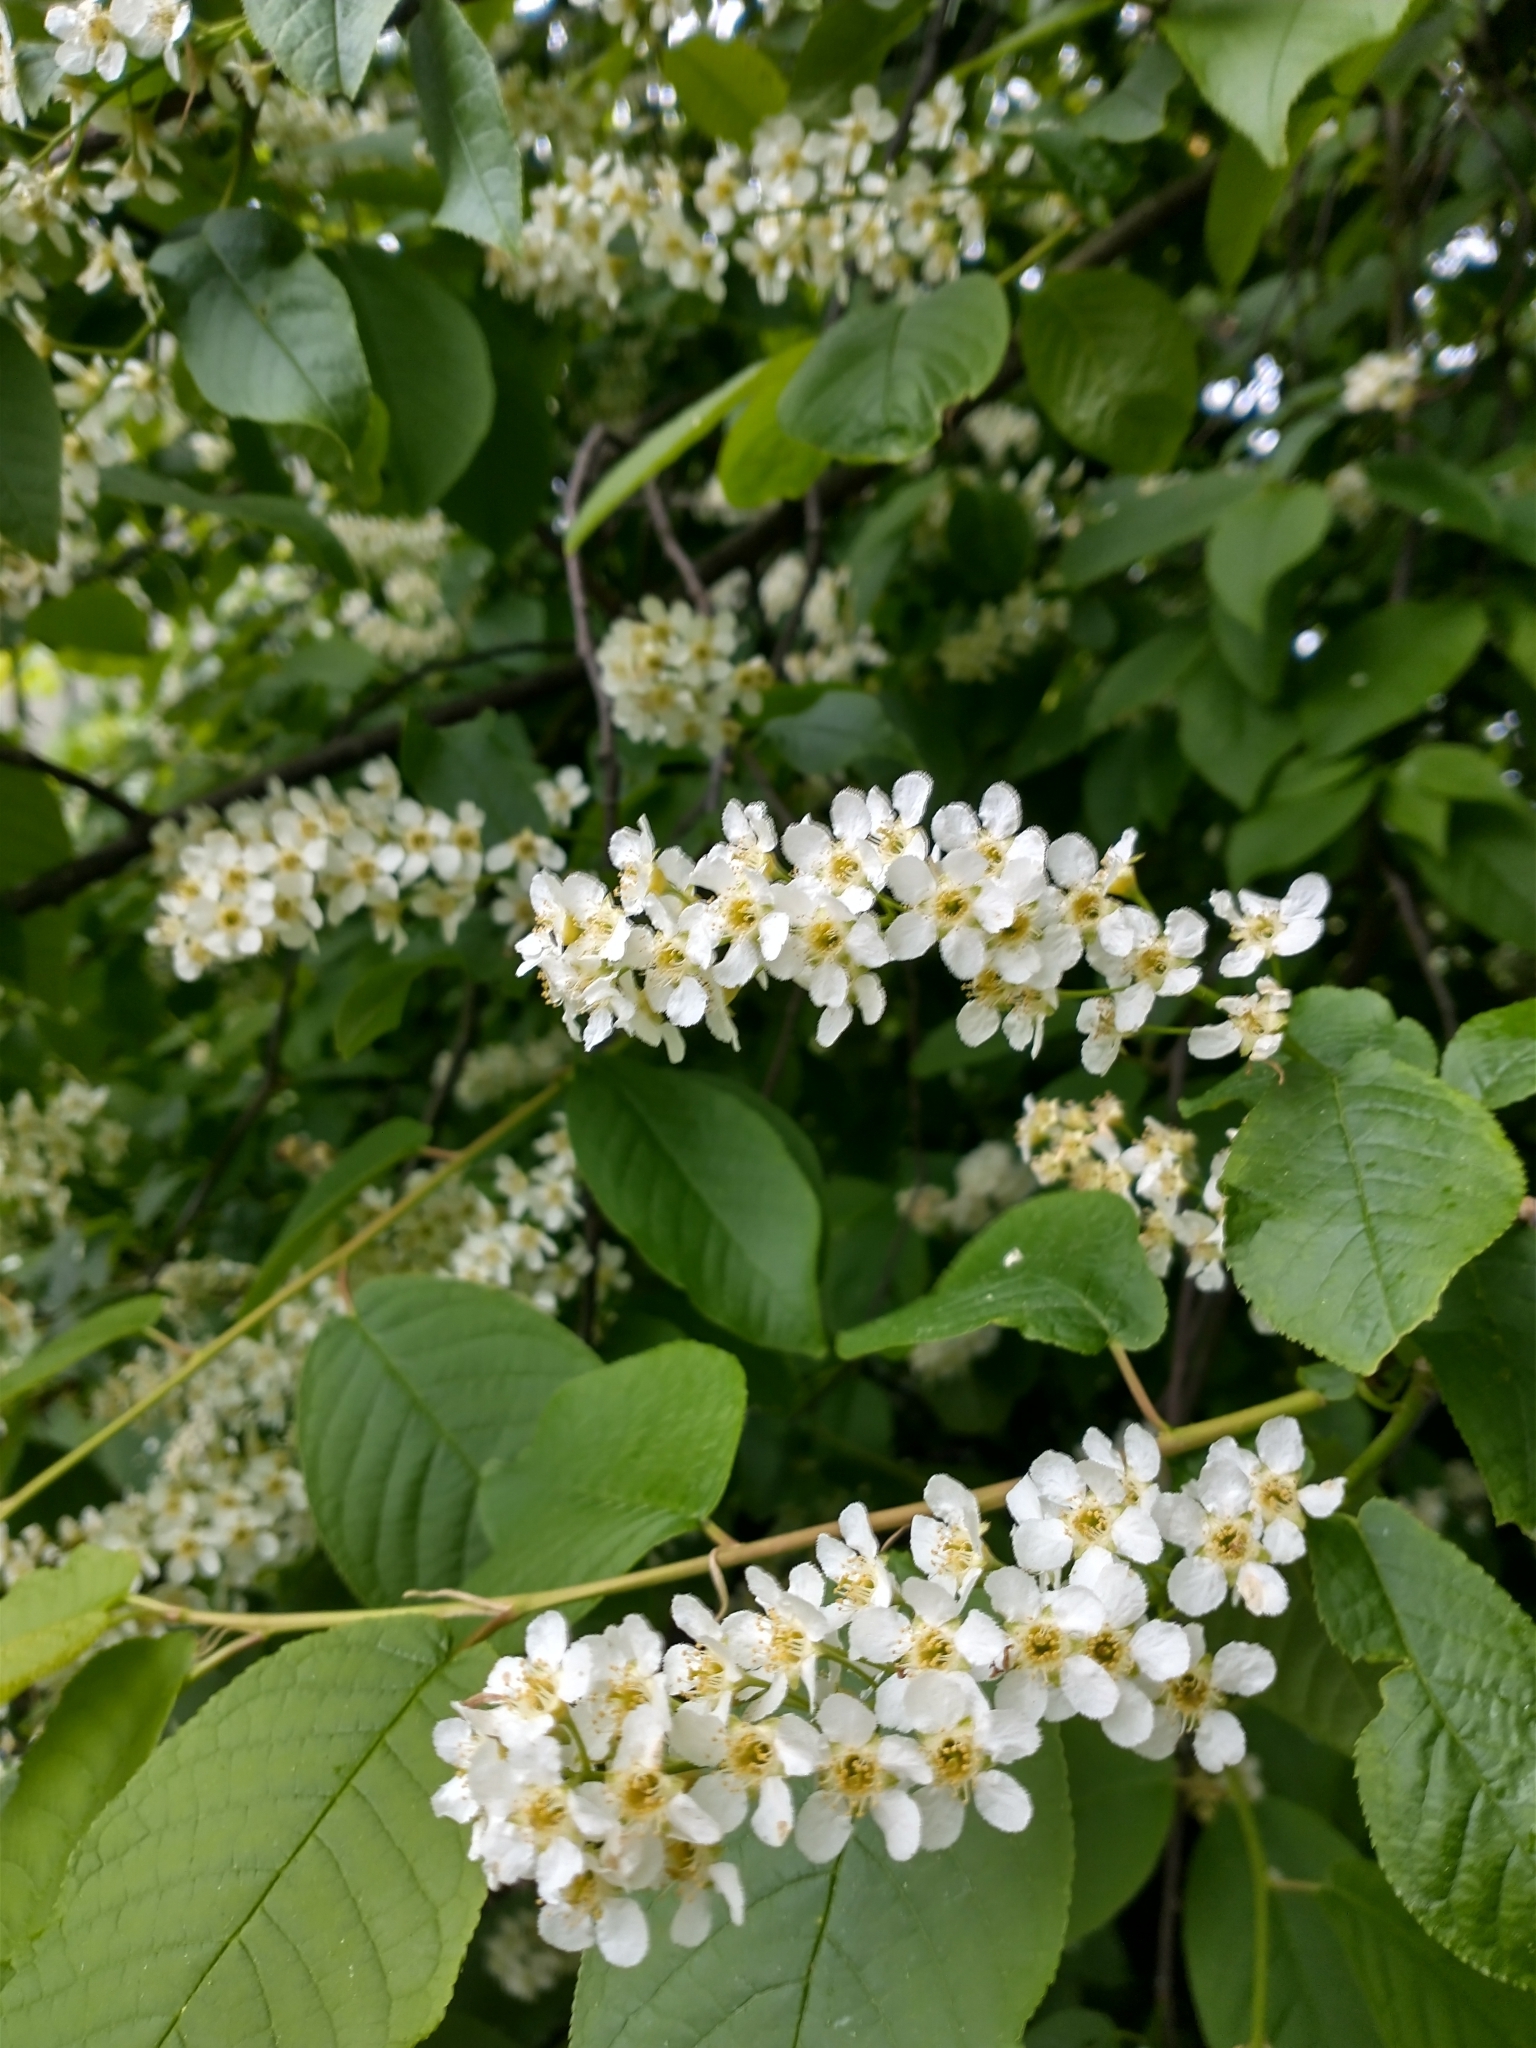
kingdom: Plantae
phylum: Tracheophyta
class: Magnoliopsida
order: Rosales
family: Rosaceae
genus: Prunus
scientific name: Prunus padus
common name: Bird cherry
